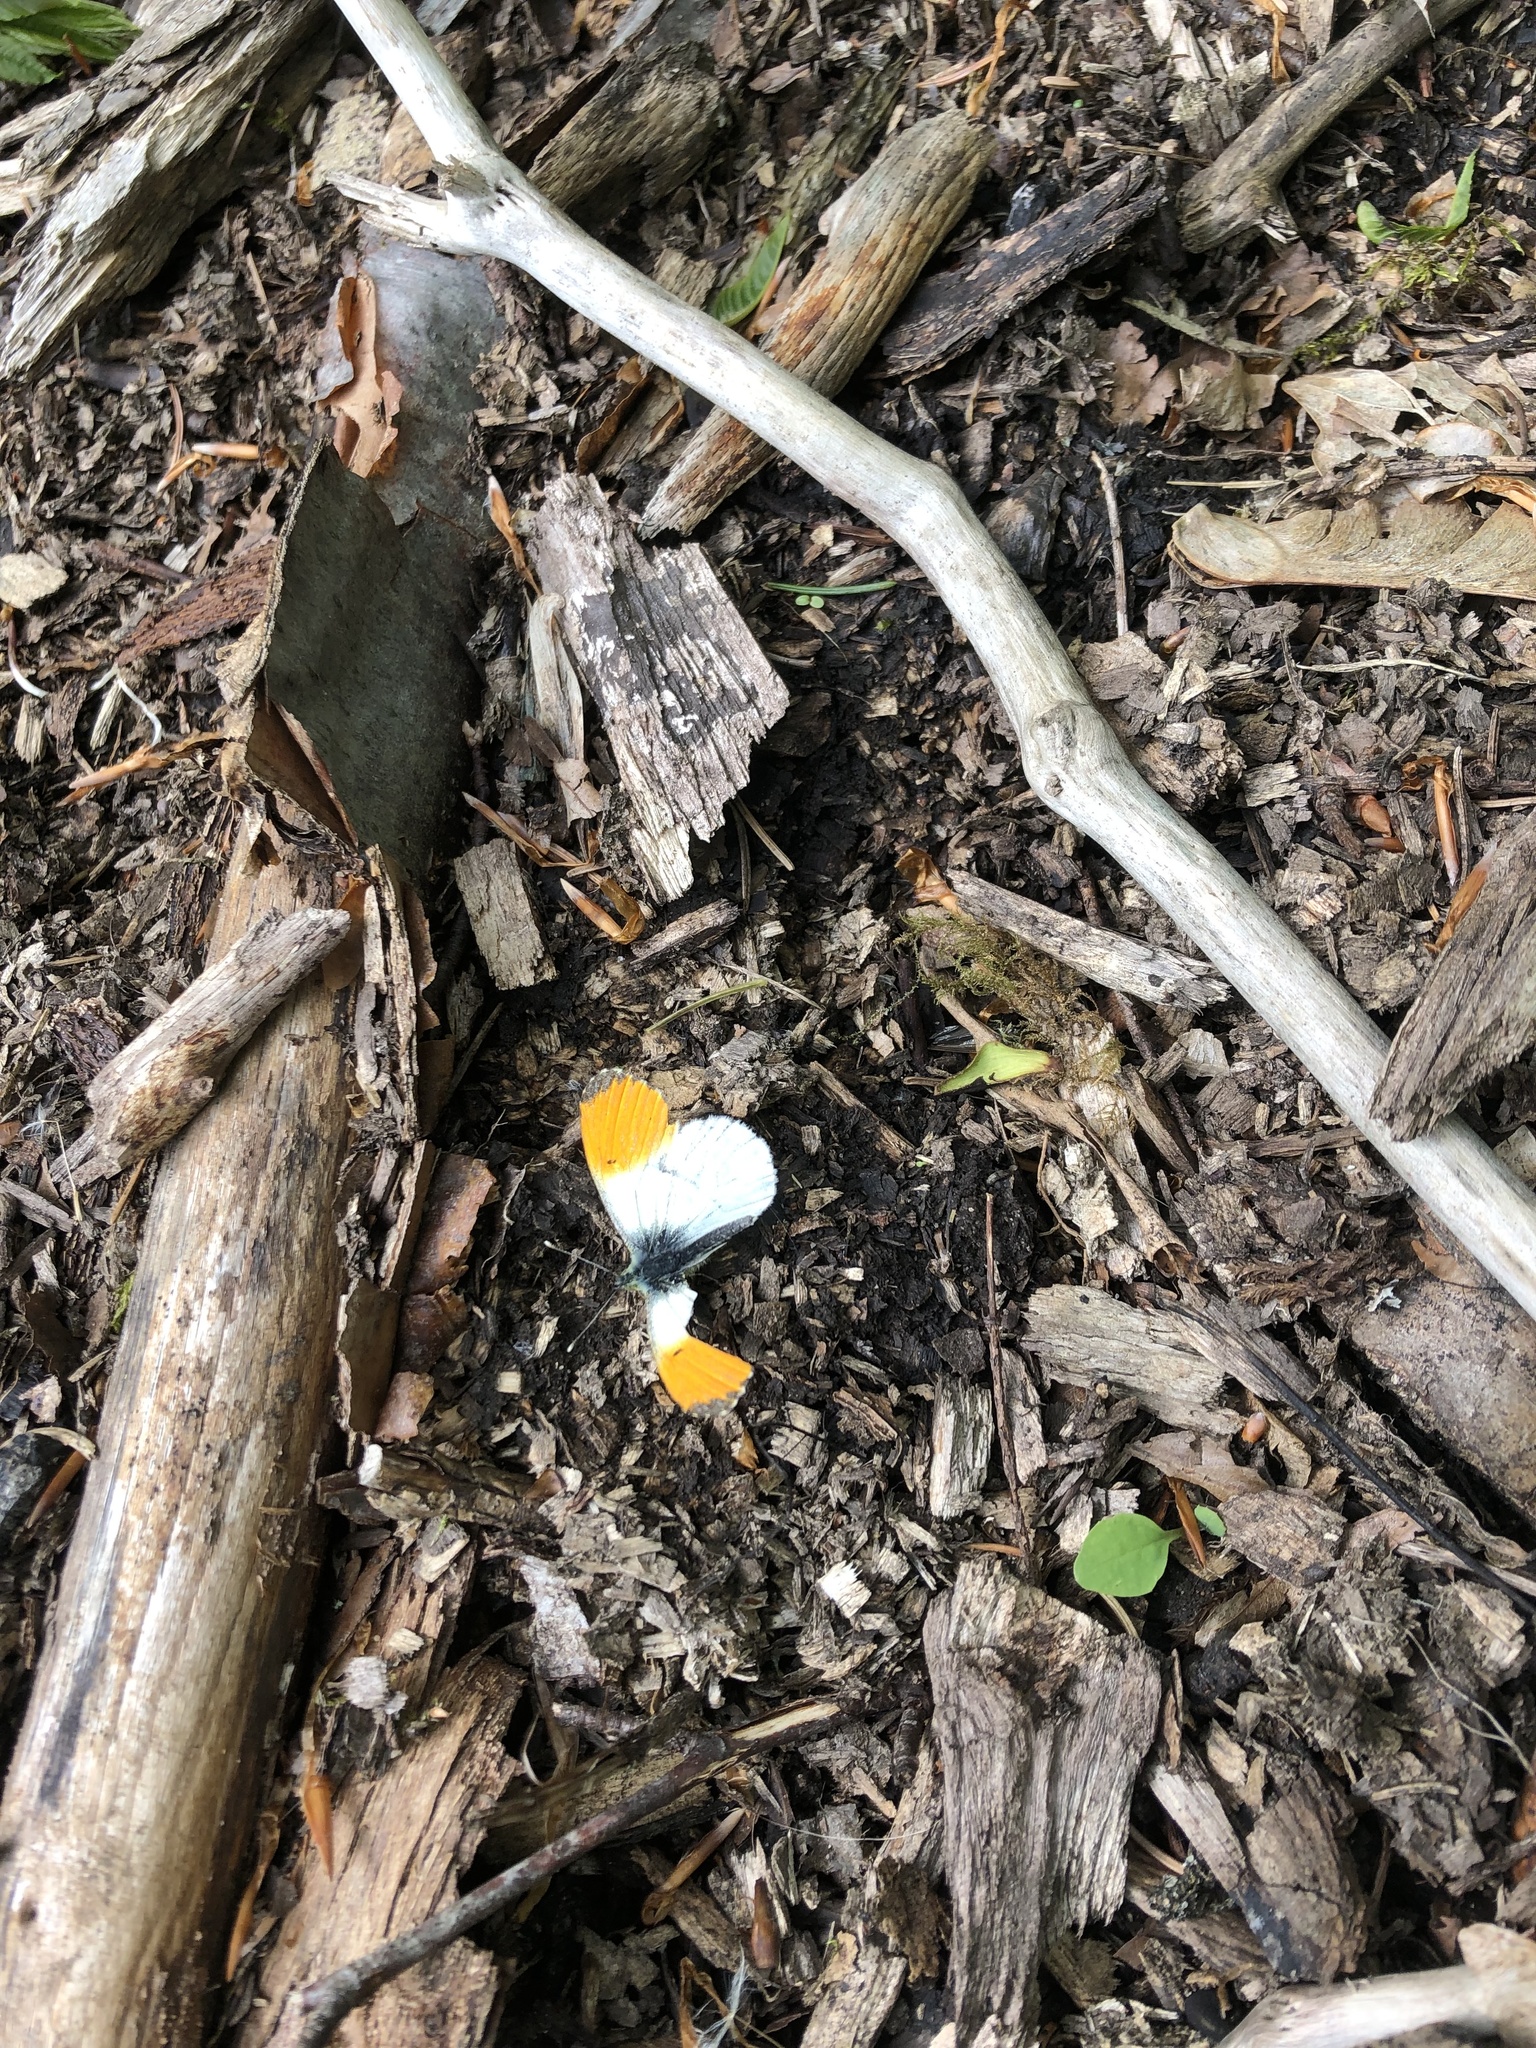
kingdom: Animalia
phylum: Arthropoda
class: Insecta
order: Lepidoptera
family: Pieridae
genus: Anthocharis
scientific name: Anthocharis cardamines
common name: Orange-tip
